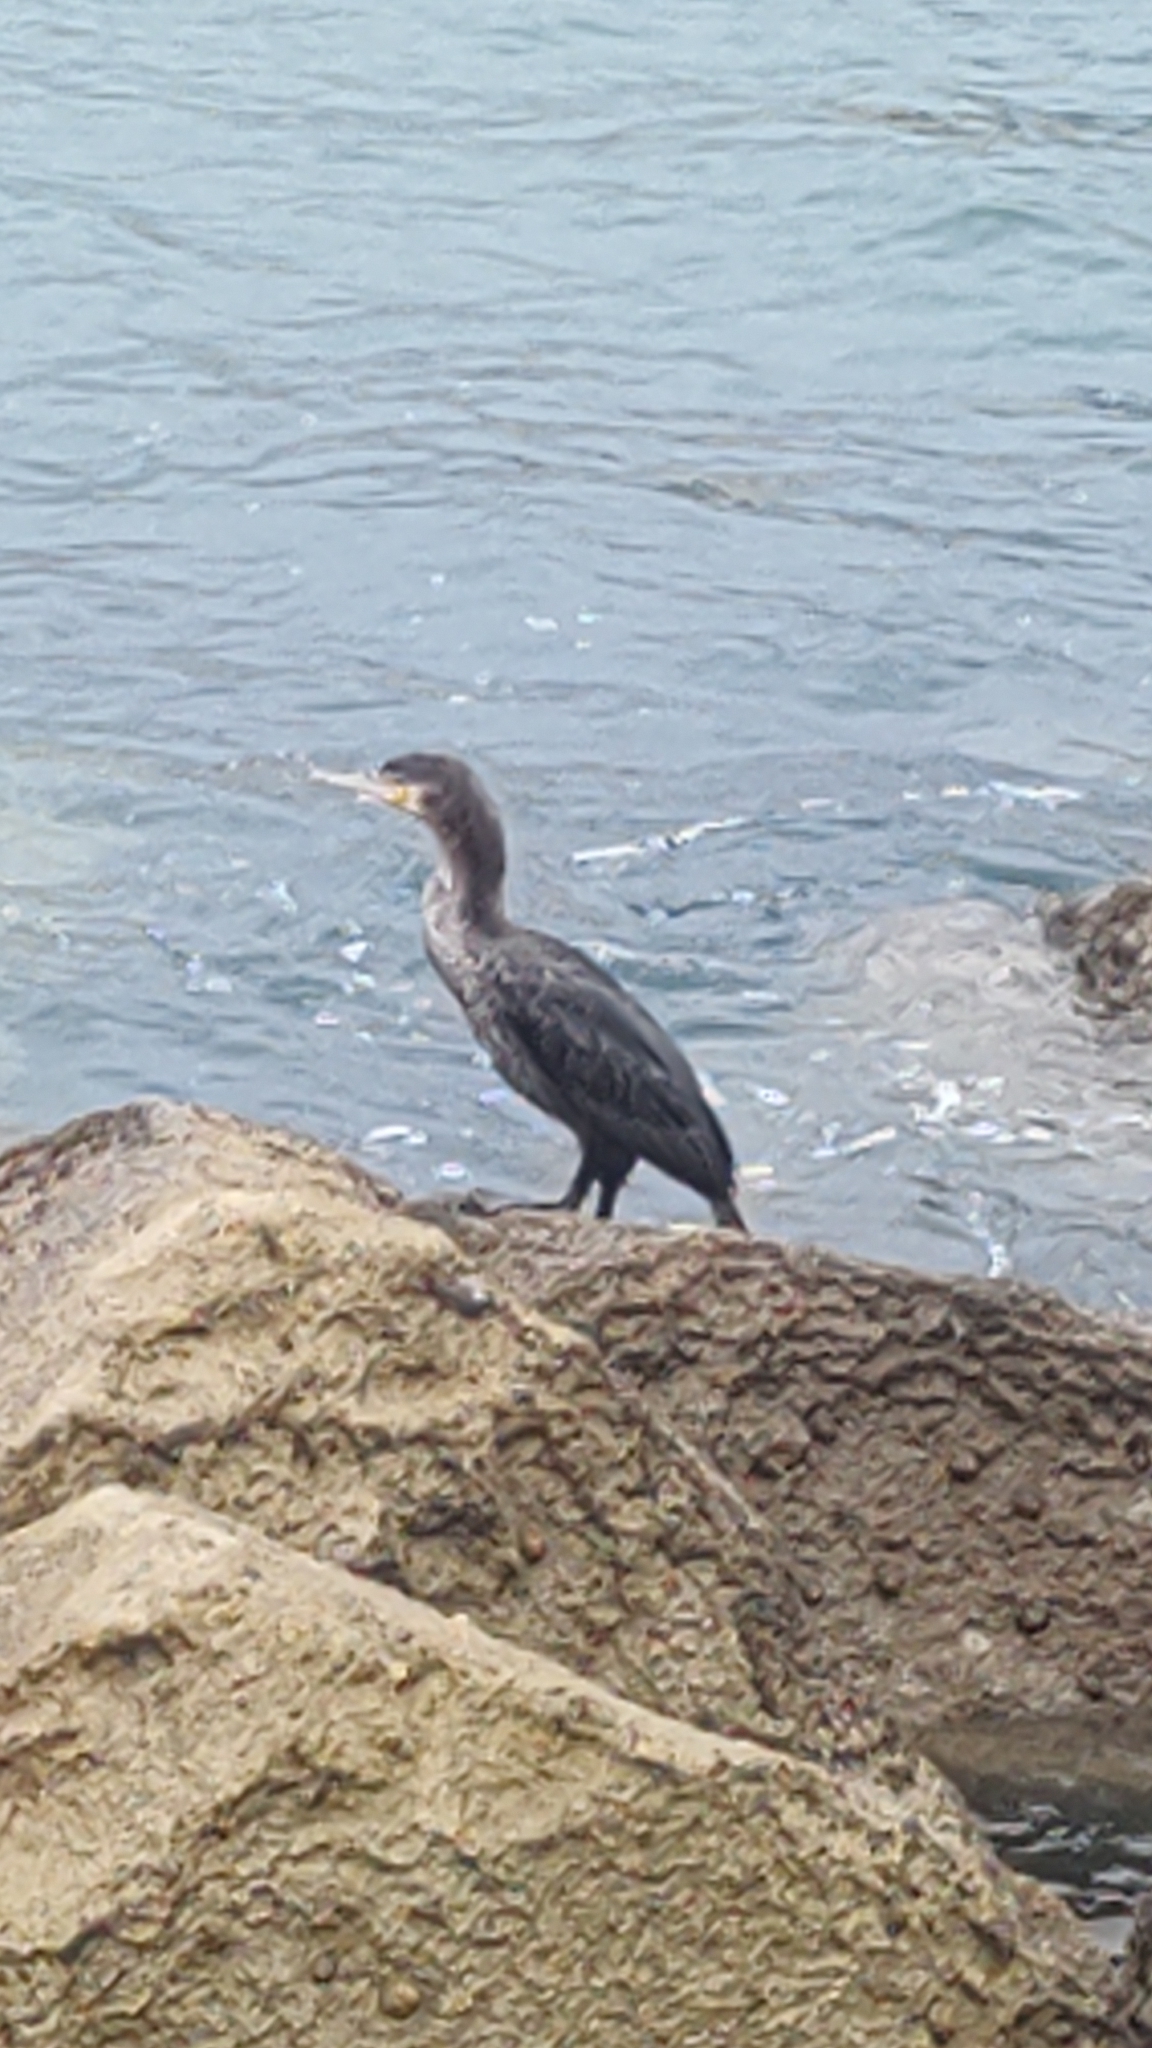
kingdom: Animalia
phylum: Chordata
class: Aves
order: Suliformes
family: Phalacrocoracidae
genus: Phalacrocorax
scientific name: Phalacrocorax carbo
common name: Great cormorant
